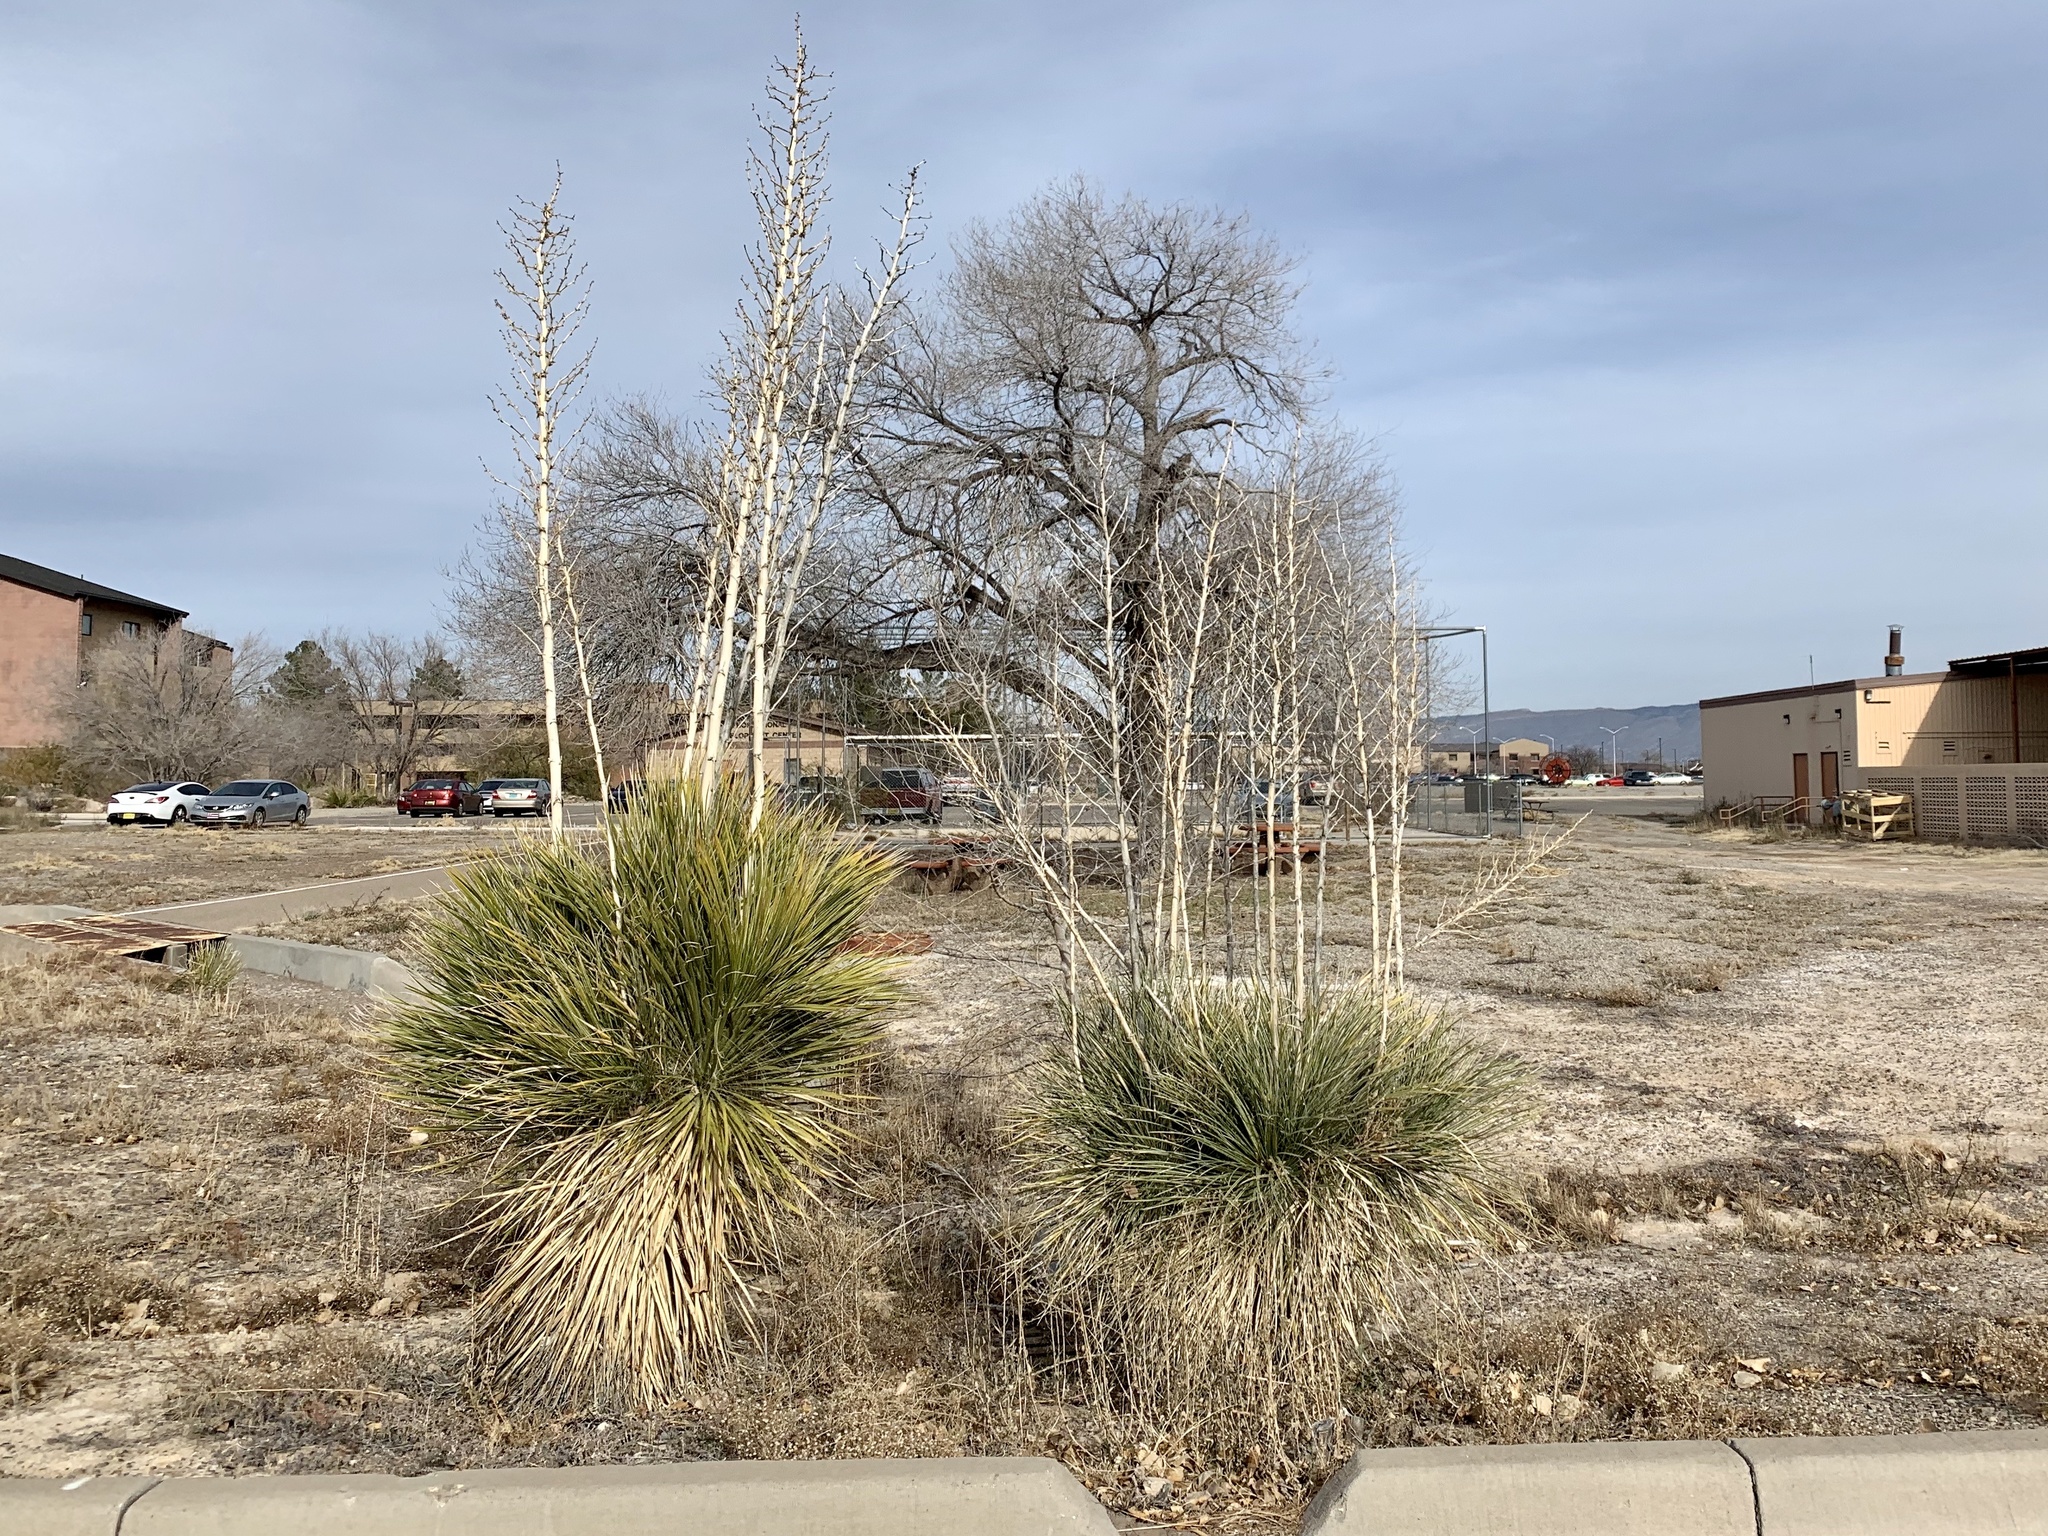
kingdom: Plantae
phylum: Tracheophyta
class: Liliopsida
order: Asparagales
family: Asparagaceae
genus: Yucca
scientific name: Yucca elata
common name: Palmella
